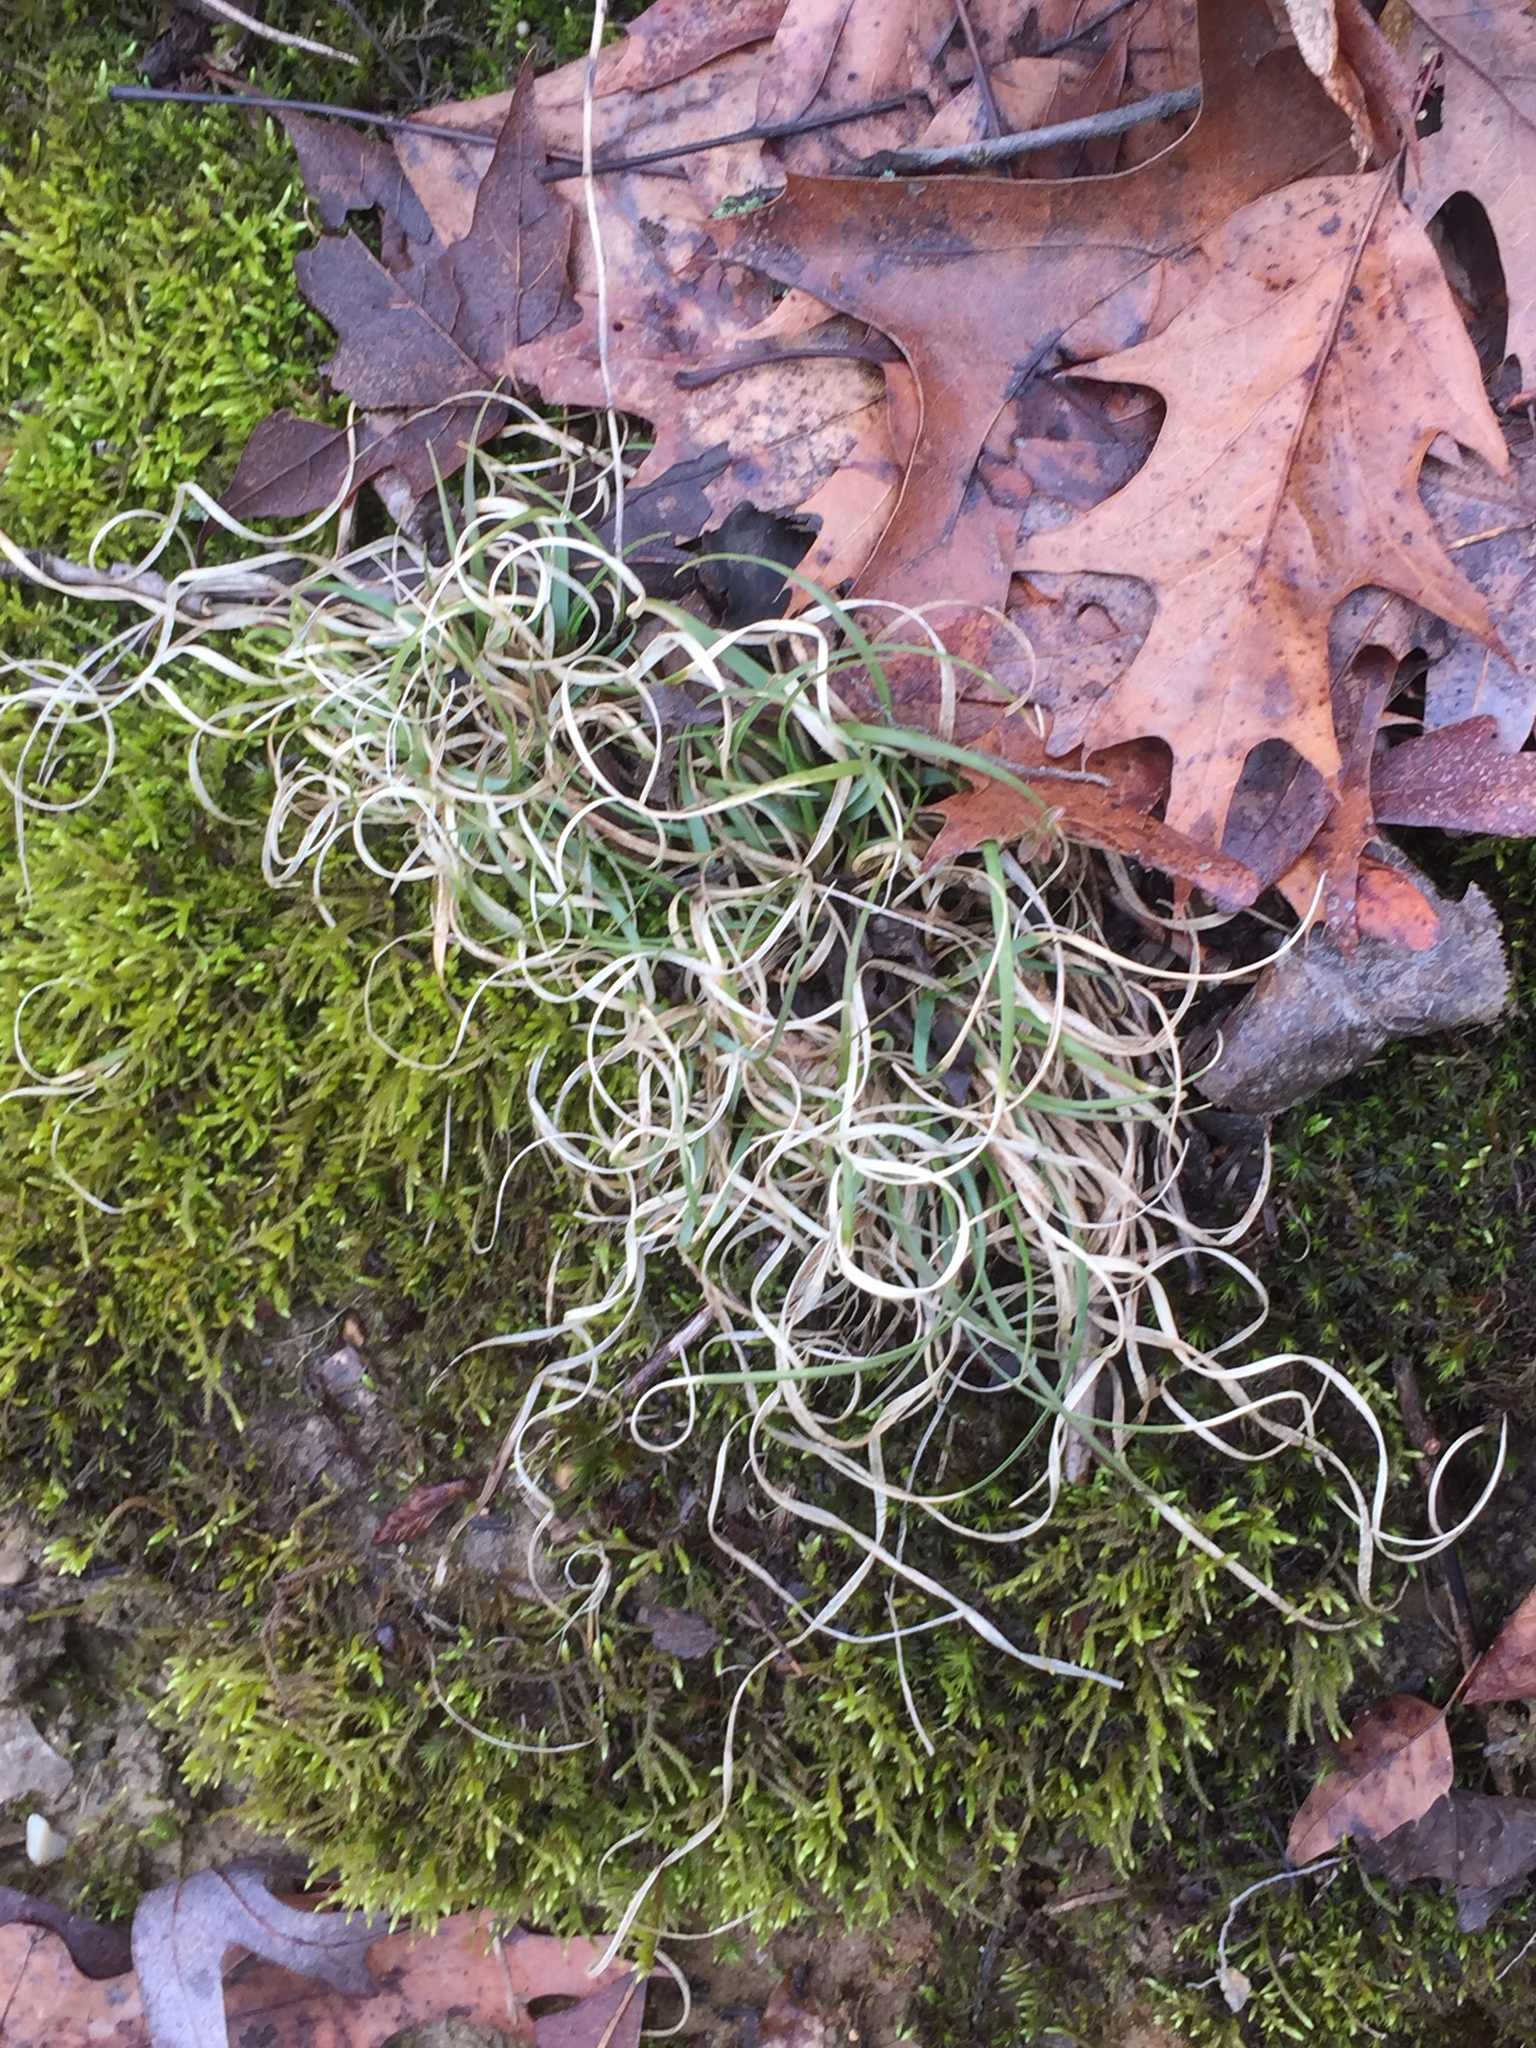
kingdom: Plantae
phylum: Tracheophyta
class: Liliopsida
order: Poales
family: Poaceae
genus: Danthonia
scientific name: Danthonia spicata
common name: Common wild oatgrass
